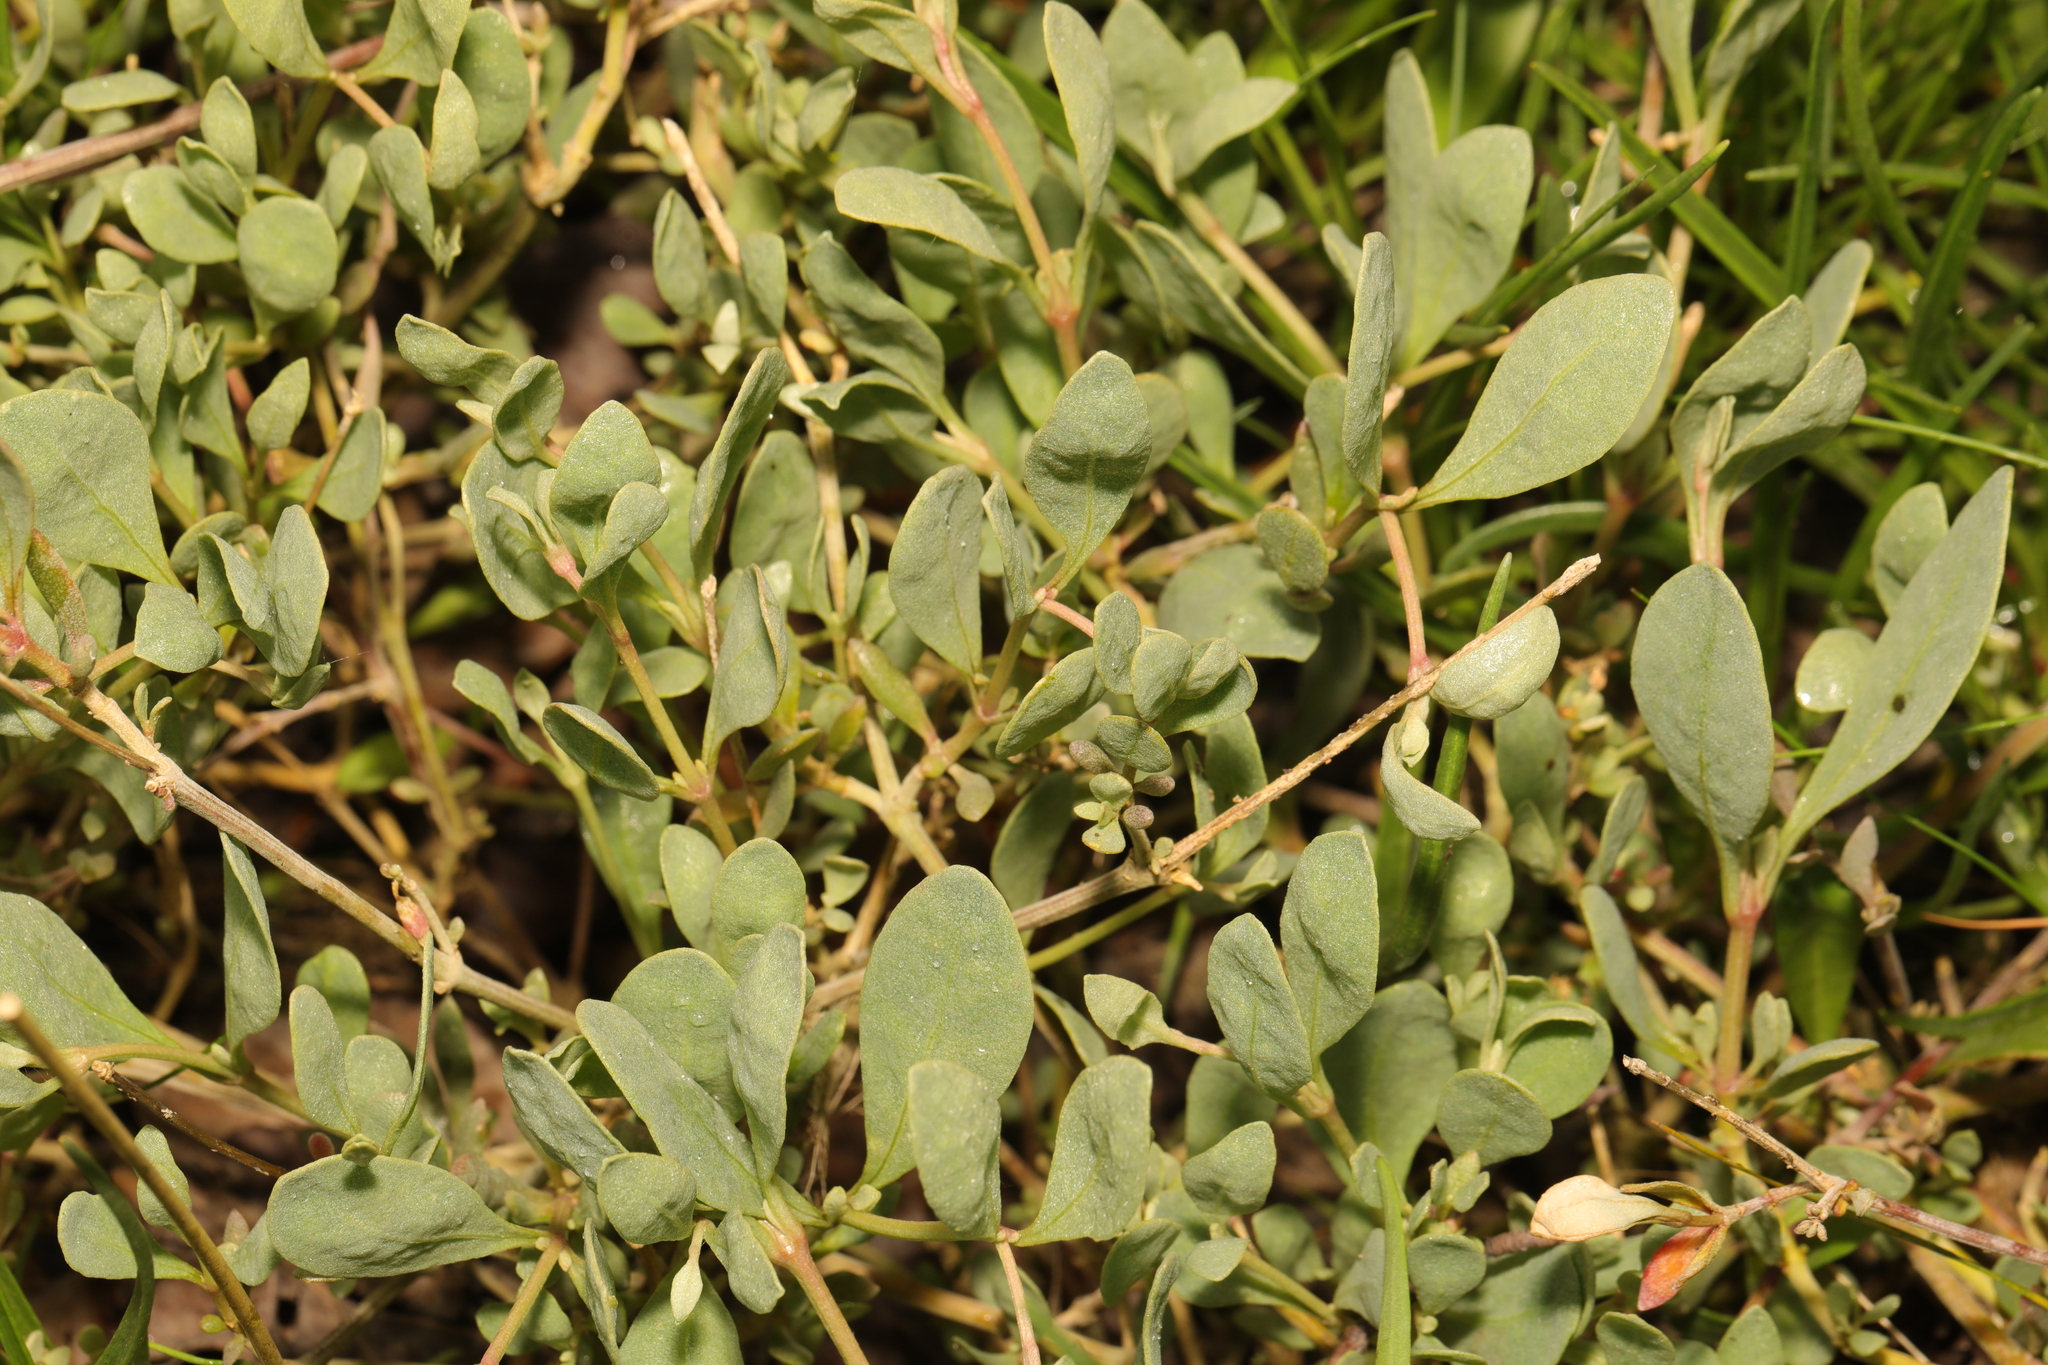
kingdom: Plantae
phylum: Tracheophyta
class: Magnoliopsida
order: Caryophyllales
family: Amaranthaceae
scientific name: Amaranthaceae
